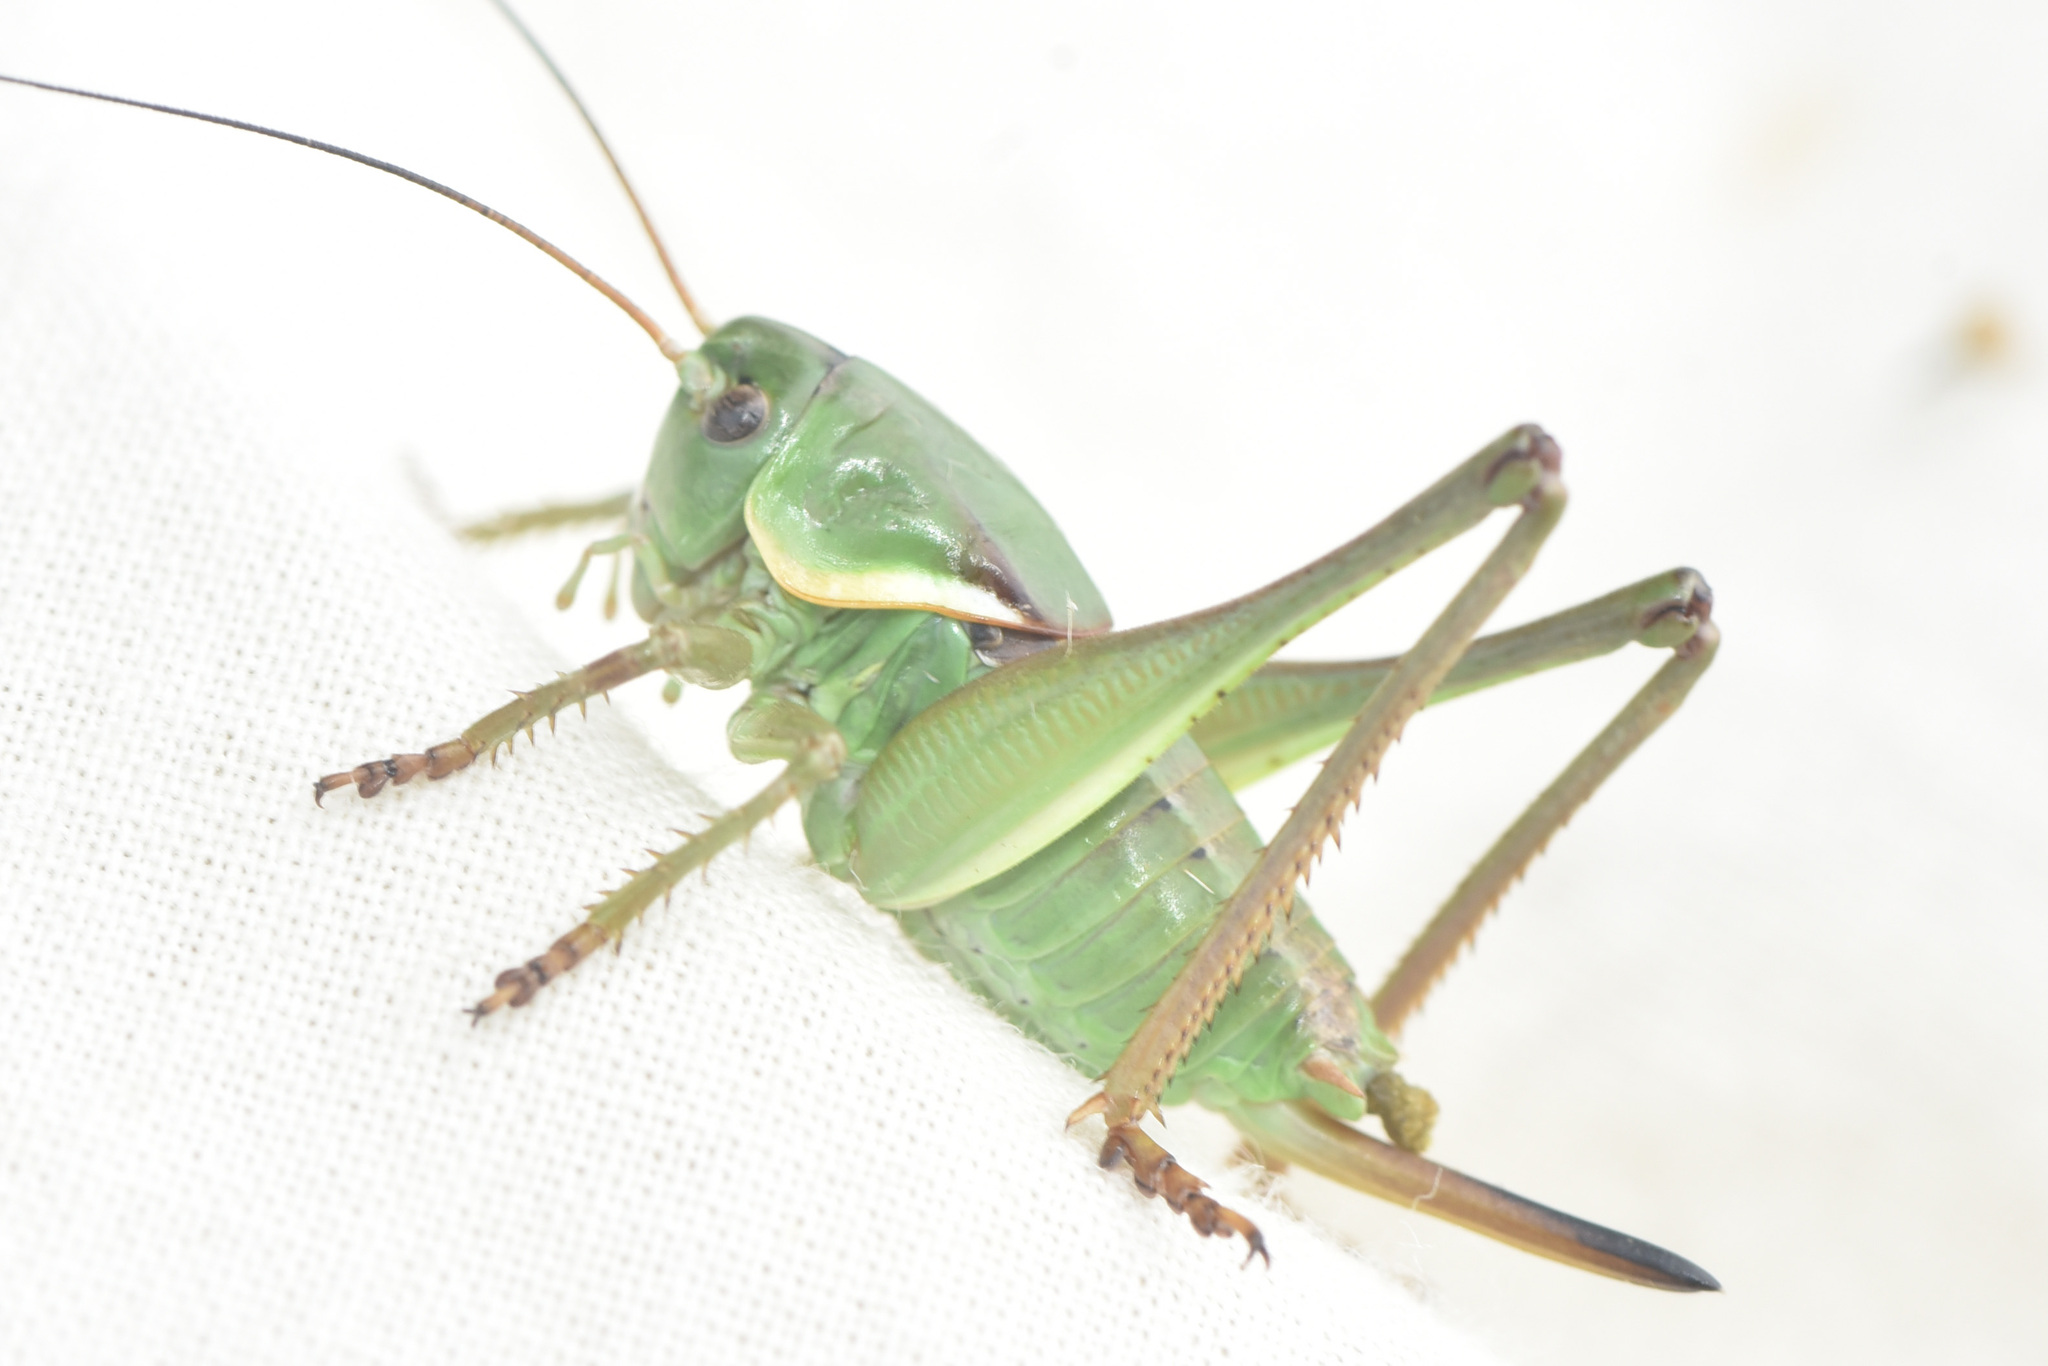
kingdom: Animalia
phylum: Arthropoda
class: Insecta
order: Orthoptera
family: Tettigoniidae
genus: Anabrus
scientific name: Anabrus longipes
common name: Long-legged anabrus
